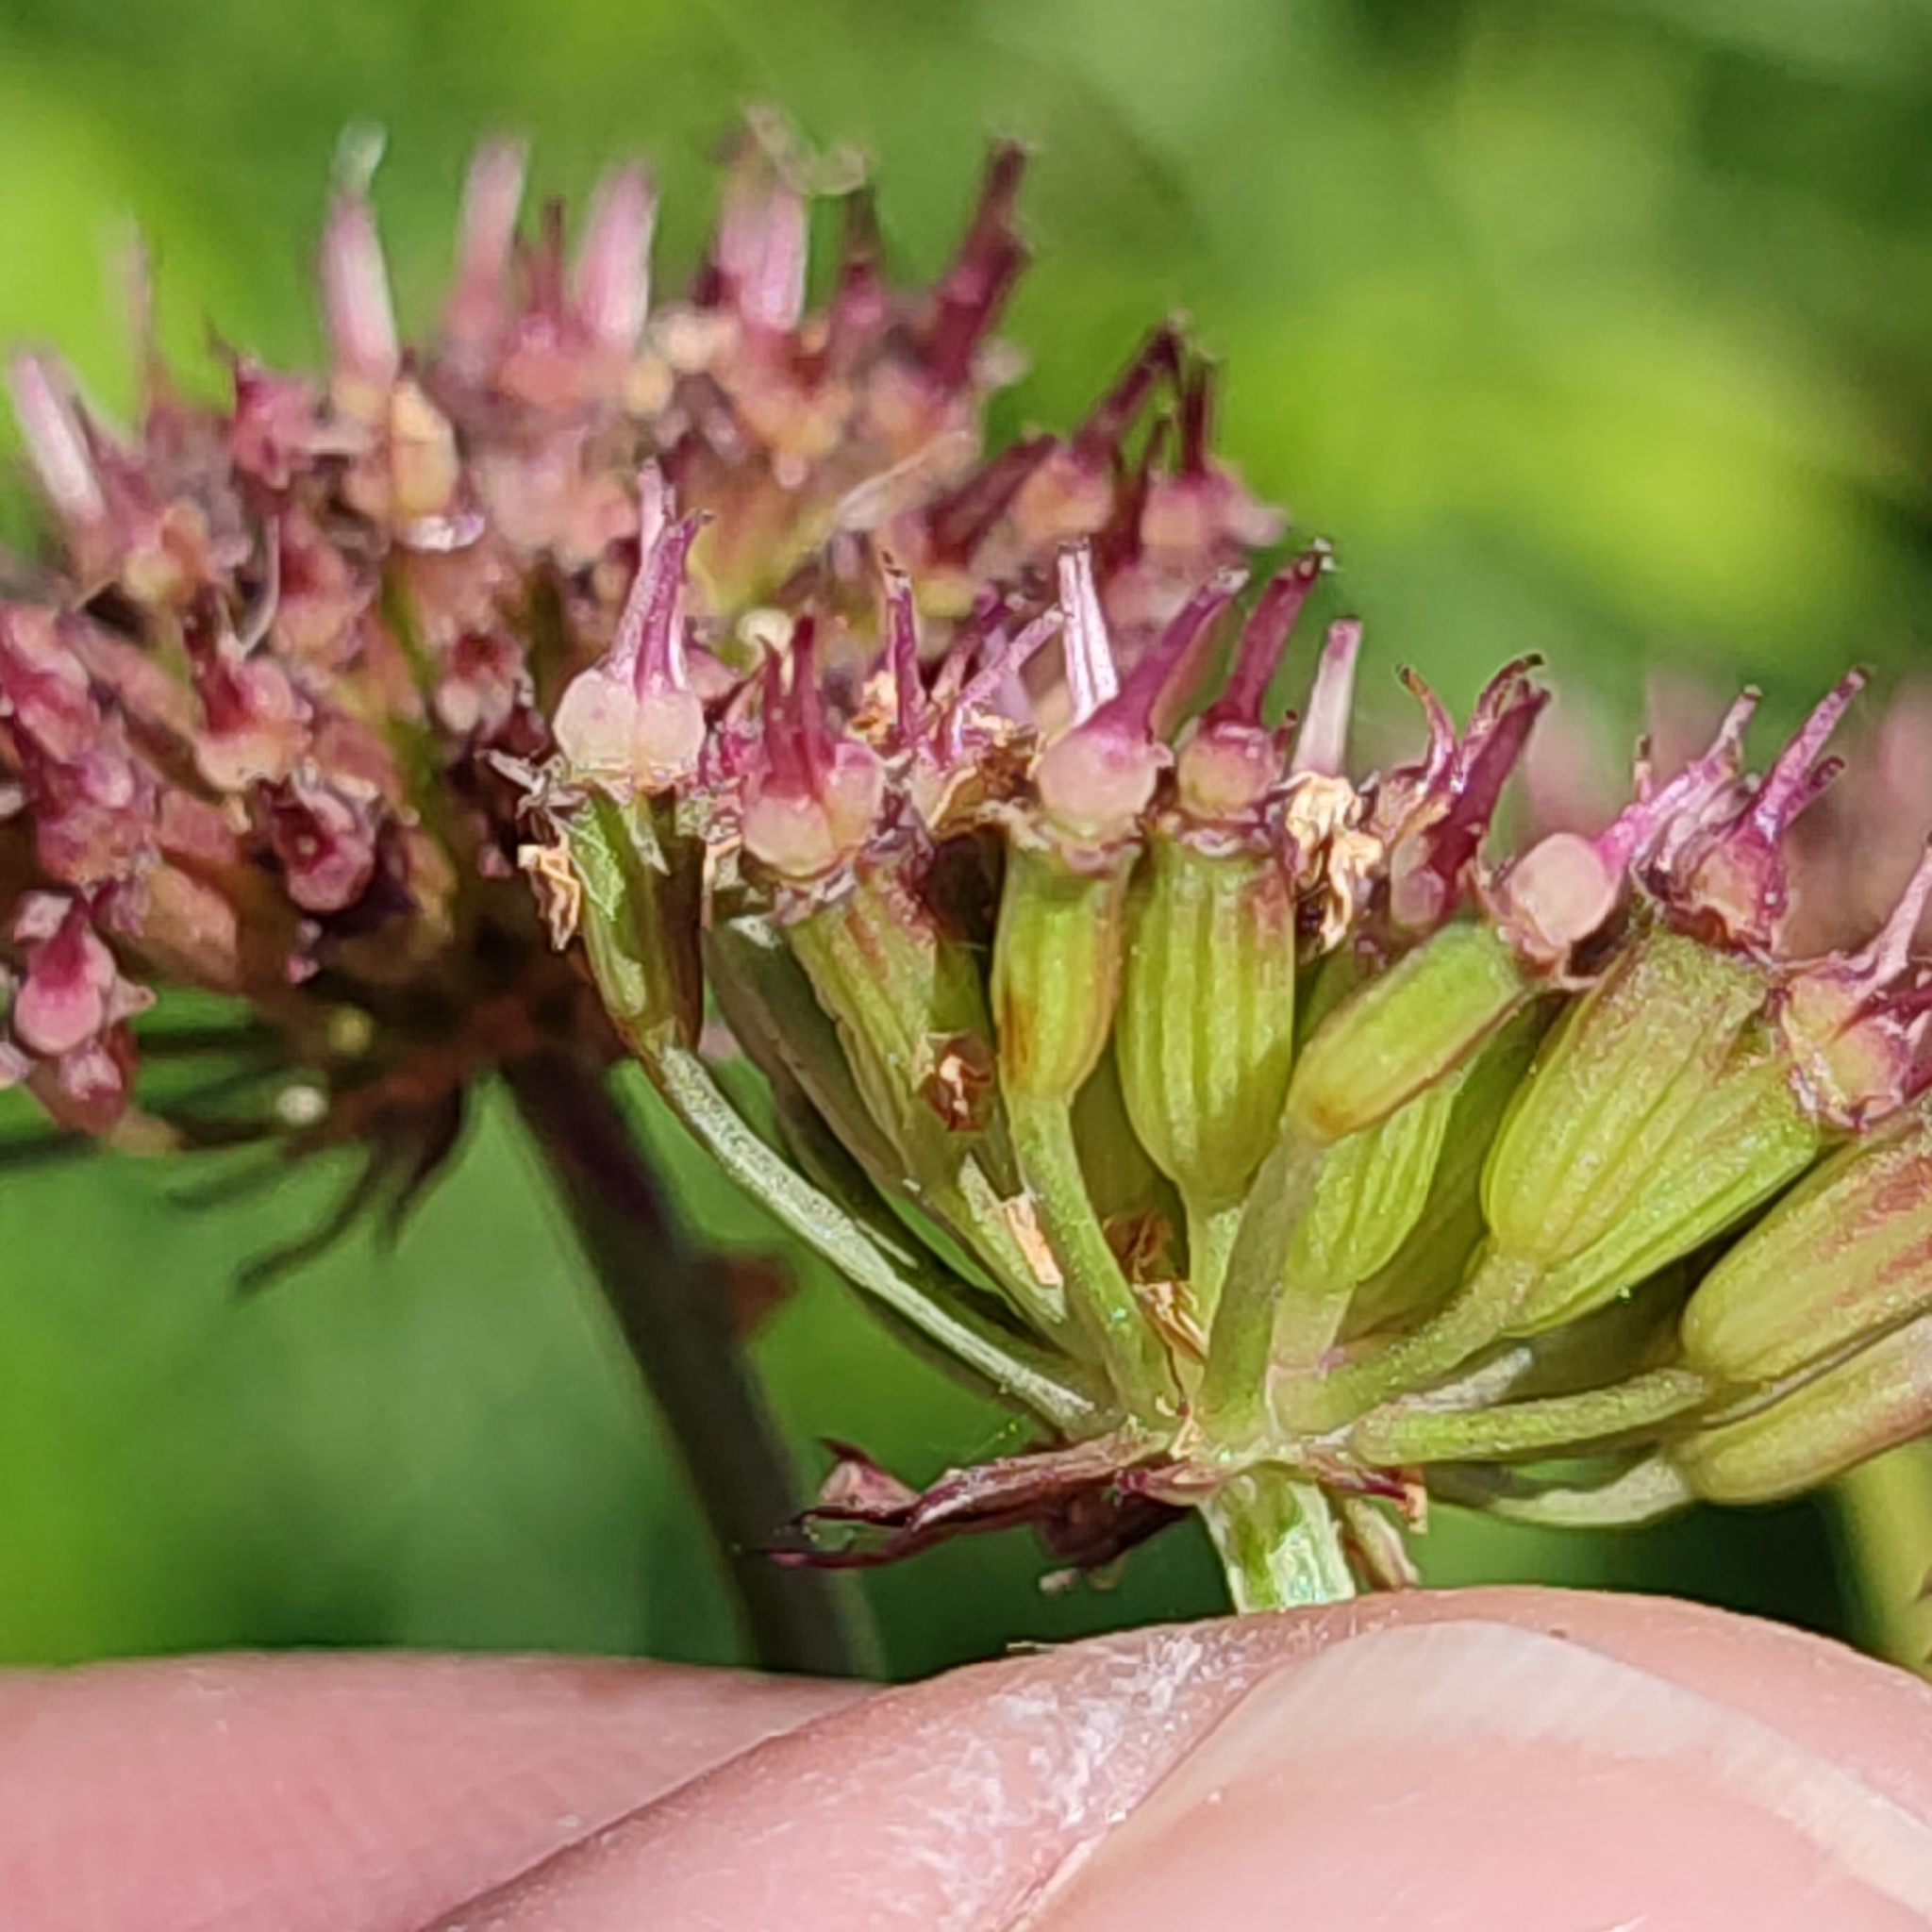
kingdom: Plantae
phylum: Tracheophyta
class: Magnoliopsida
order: Apiales
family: Apiaceae
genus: Oenanthe
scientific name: Oenanthe crocata
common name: Hemlock water-dropwort
